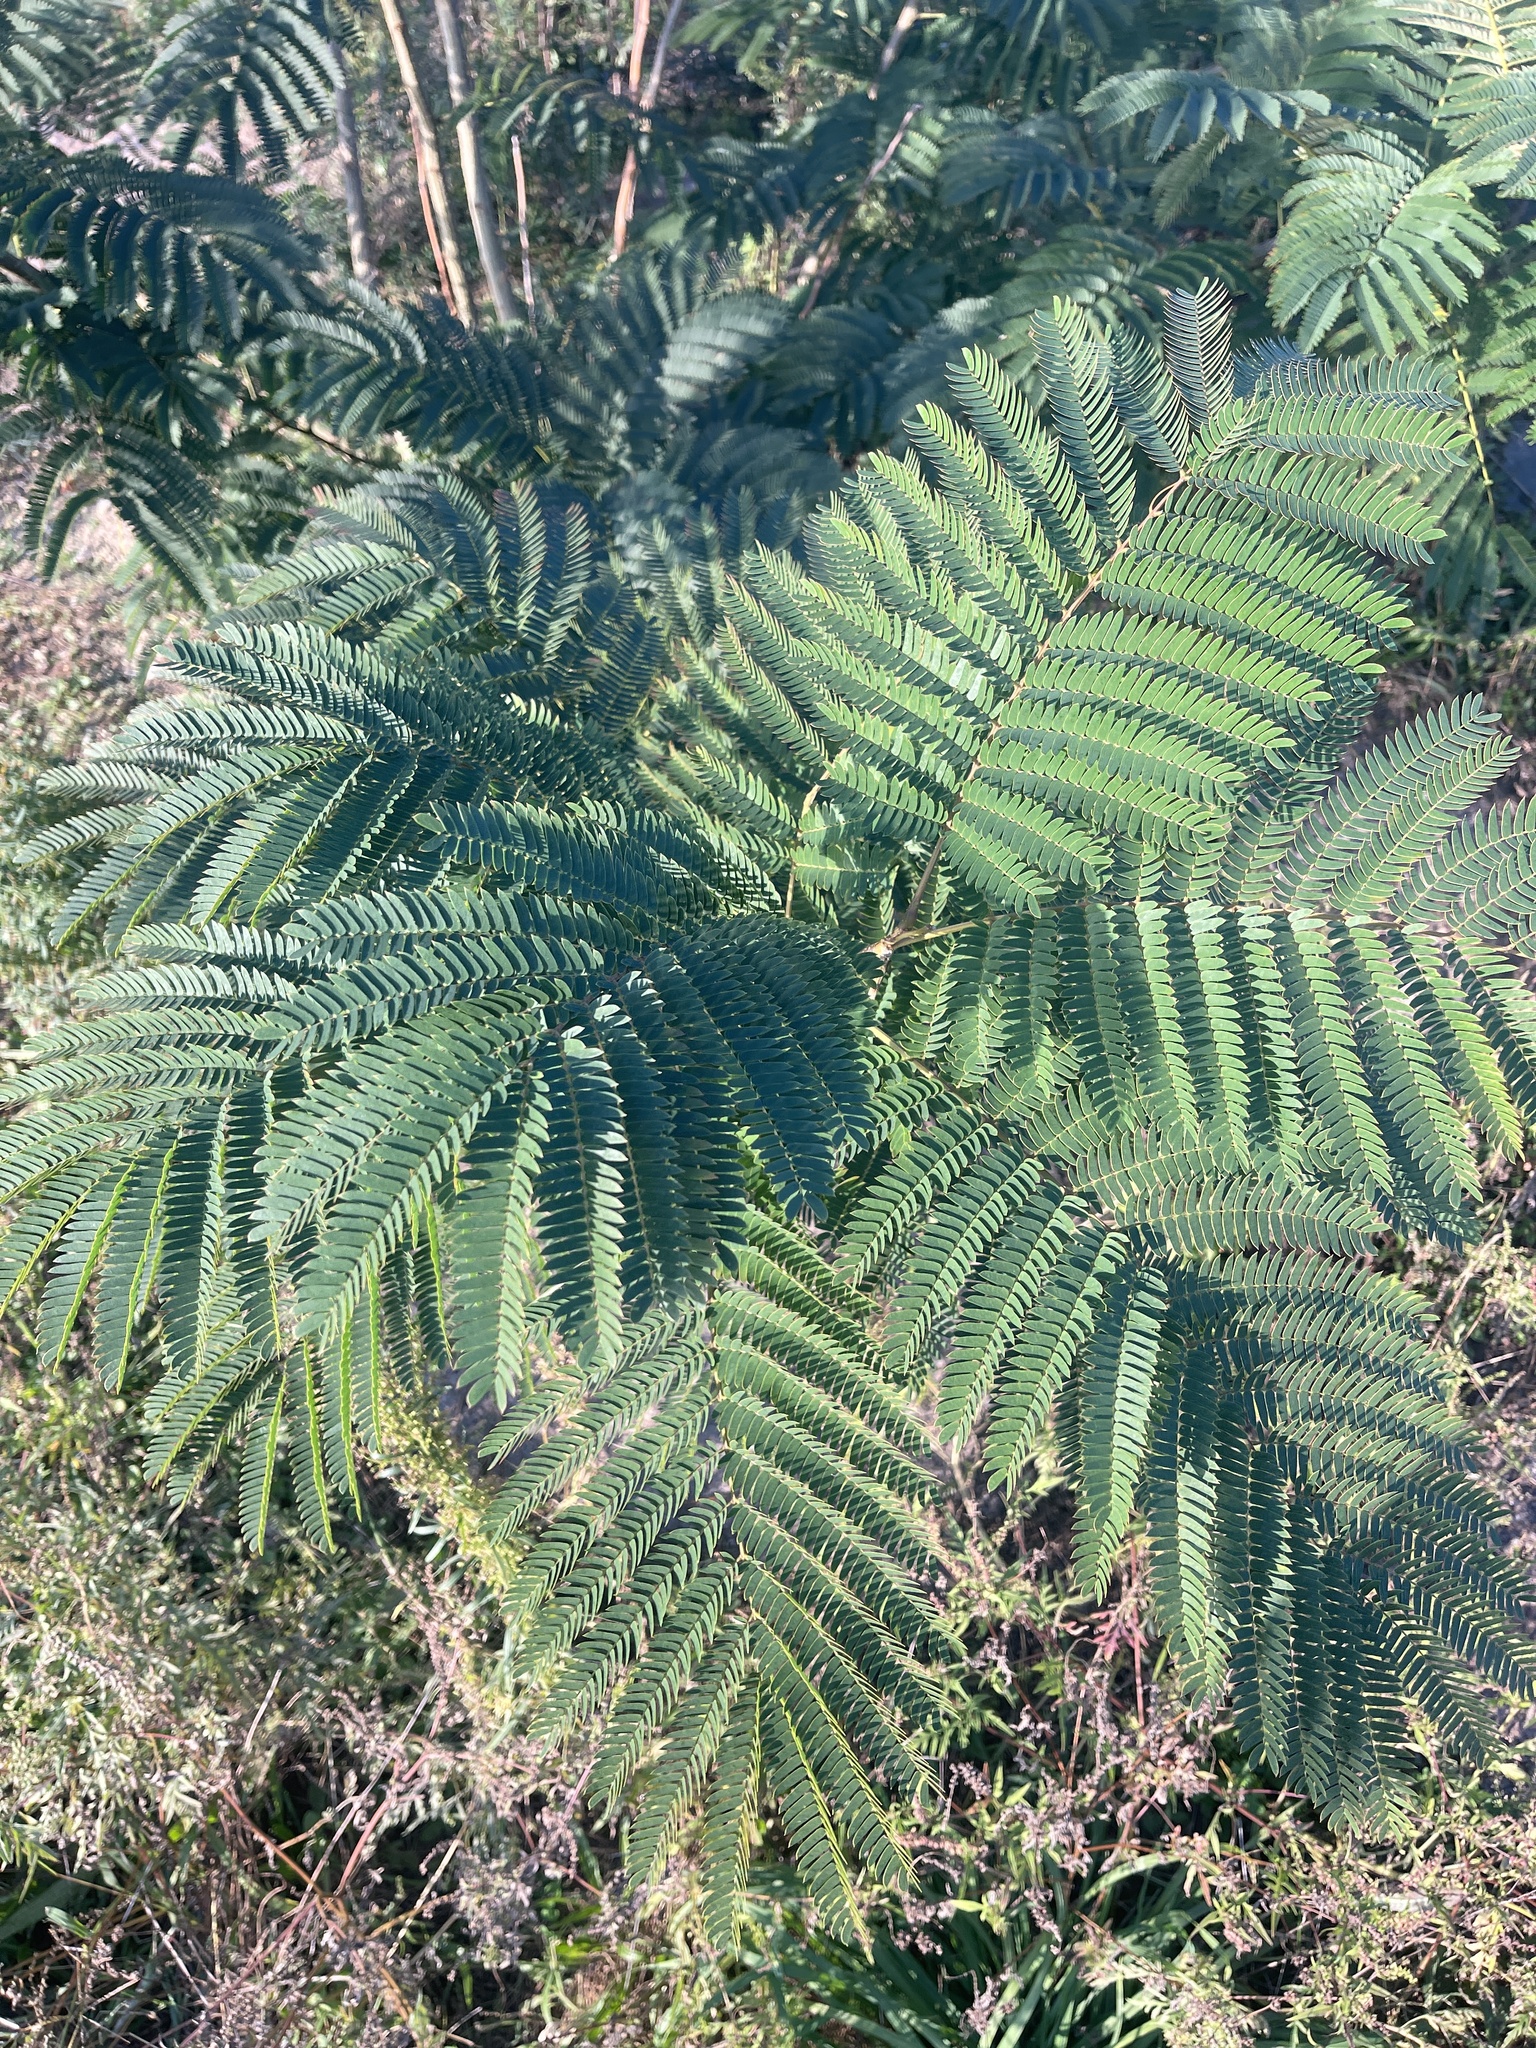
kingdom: Plantae
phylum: Tracheophyta
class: Magnoliopsida
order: Fabales
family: Fabaceae
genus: Albizia
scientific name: Albizia julibrissin
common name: Silktree
